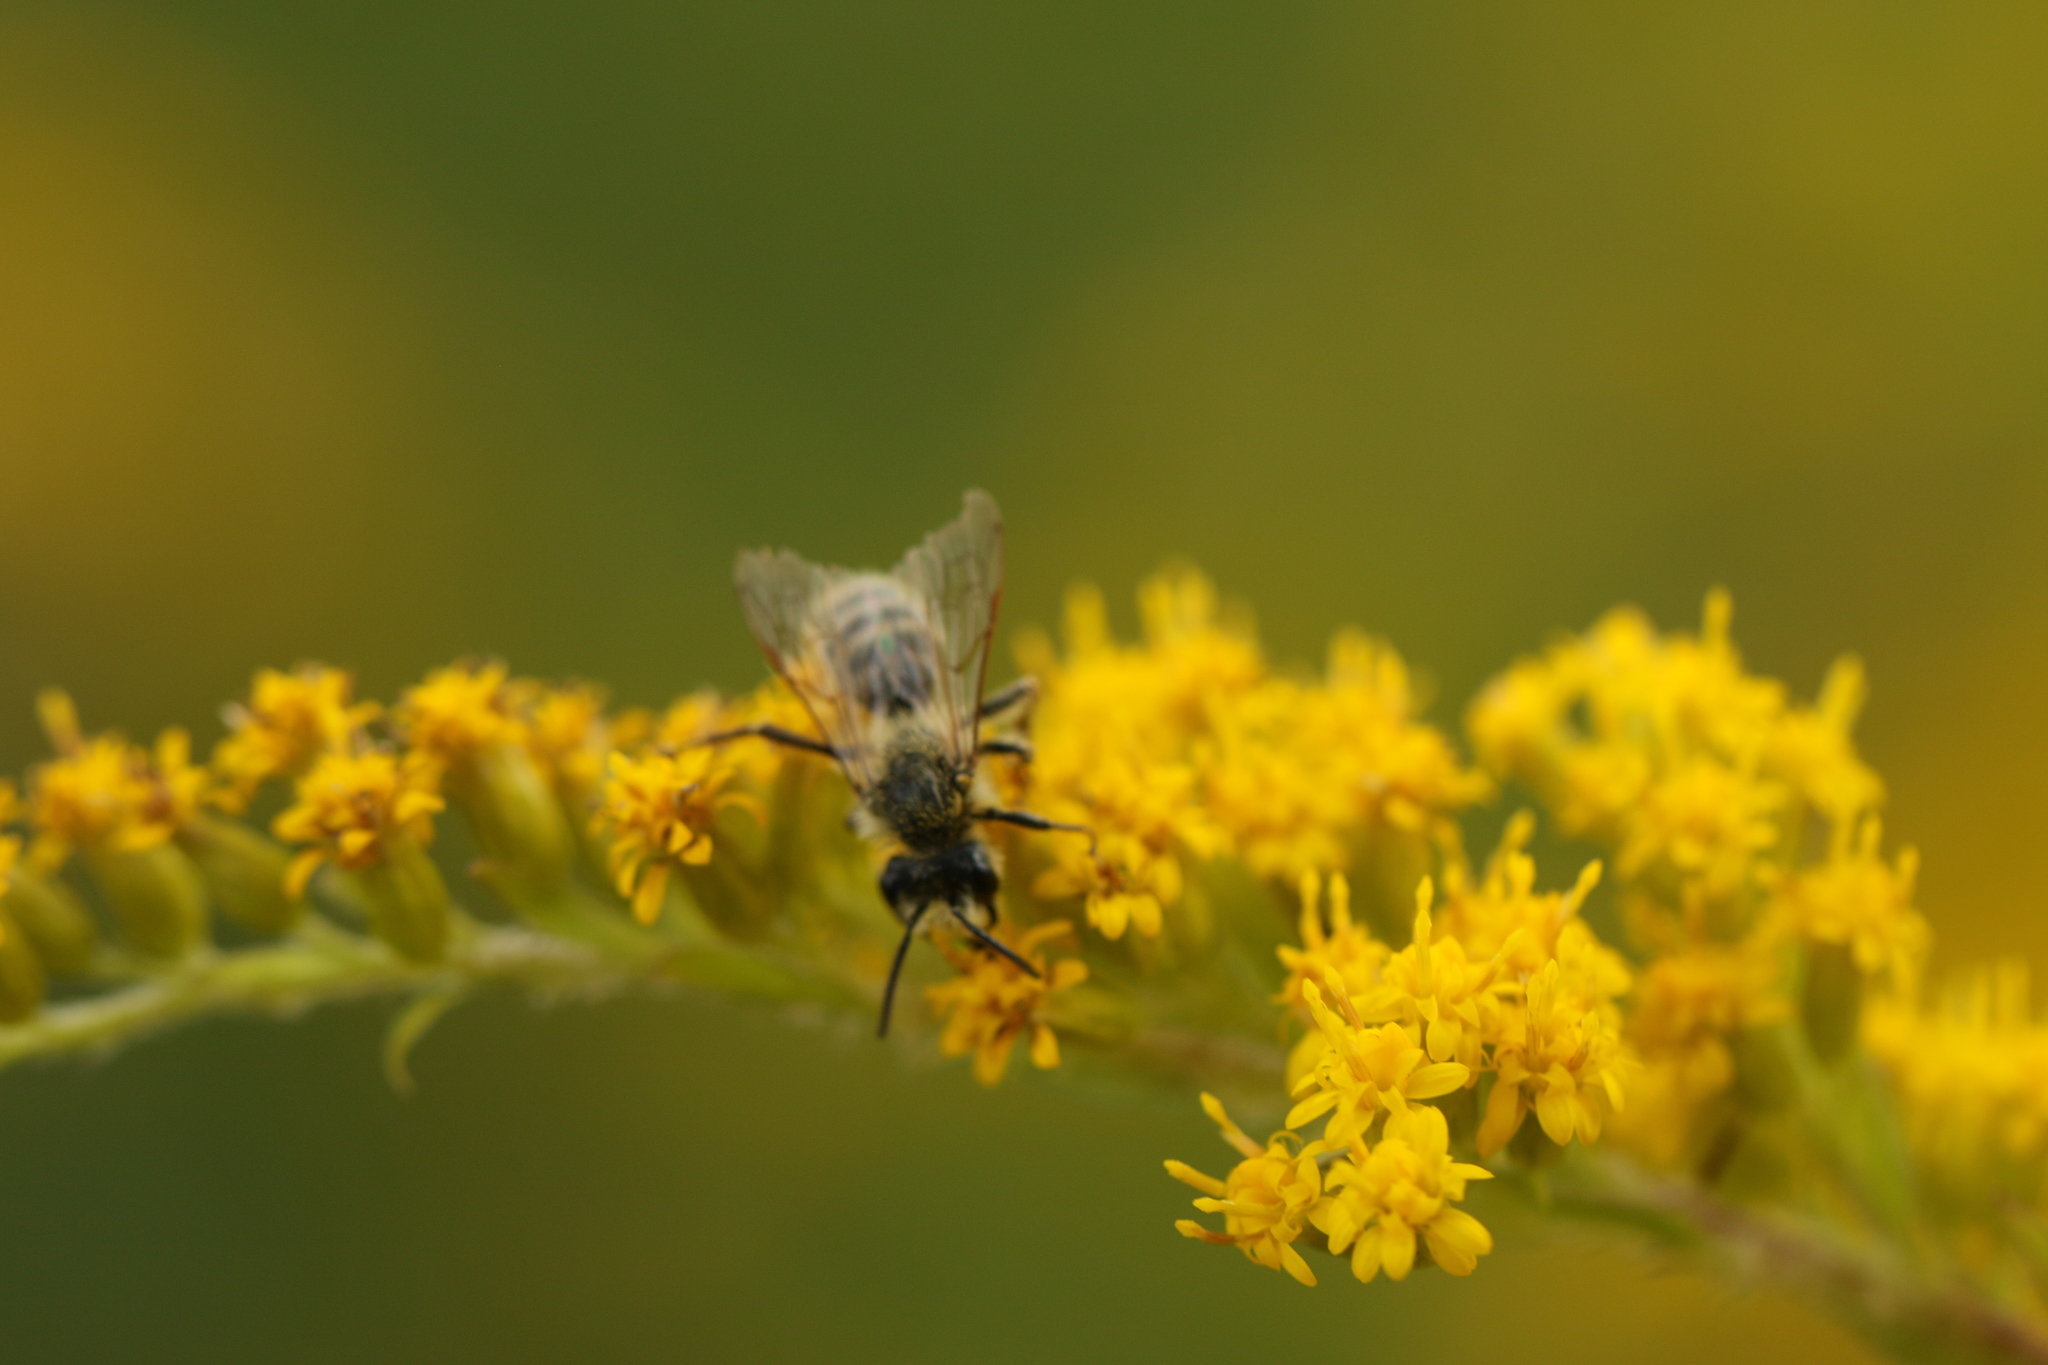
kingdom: Animalia
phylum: Arthropoda
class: Insecta
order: Hymenoptera
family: Andrenidae
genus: Andrena
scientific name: Andrena hirticincta
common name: Hairy-banded mining bee
